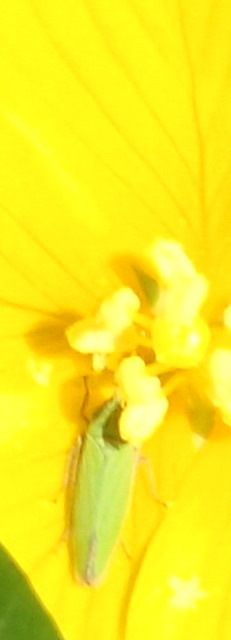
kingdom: Animalia
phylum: Arthropoda
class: Insecta
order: Hemiptera
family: Cicadellidae
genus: Draeculacephala
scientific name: Draeculacephala inscripta
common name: Leafhopper
